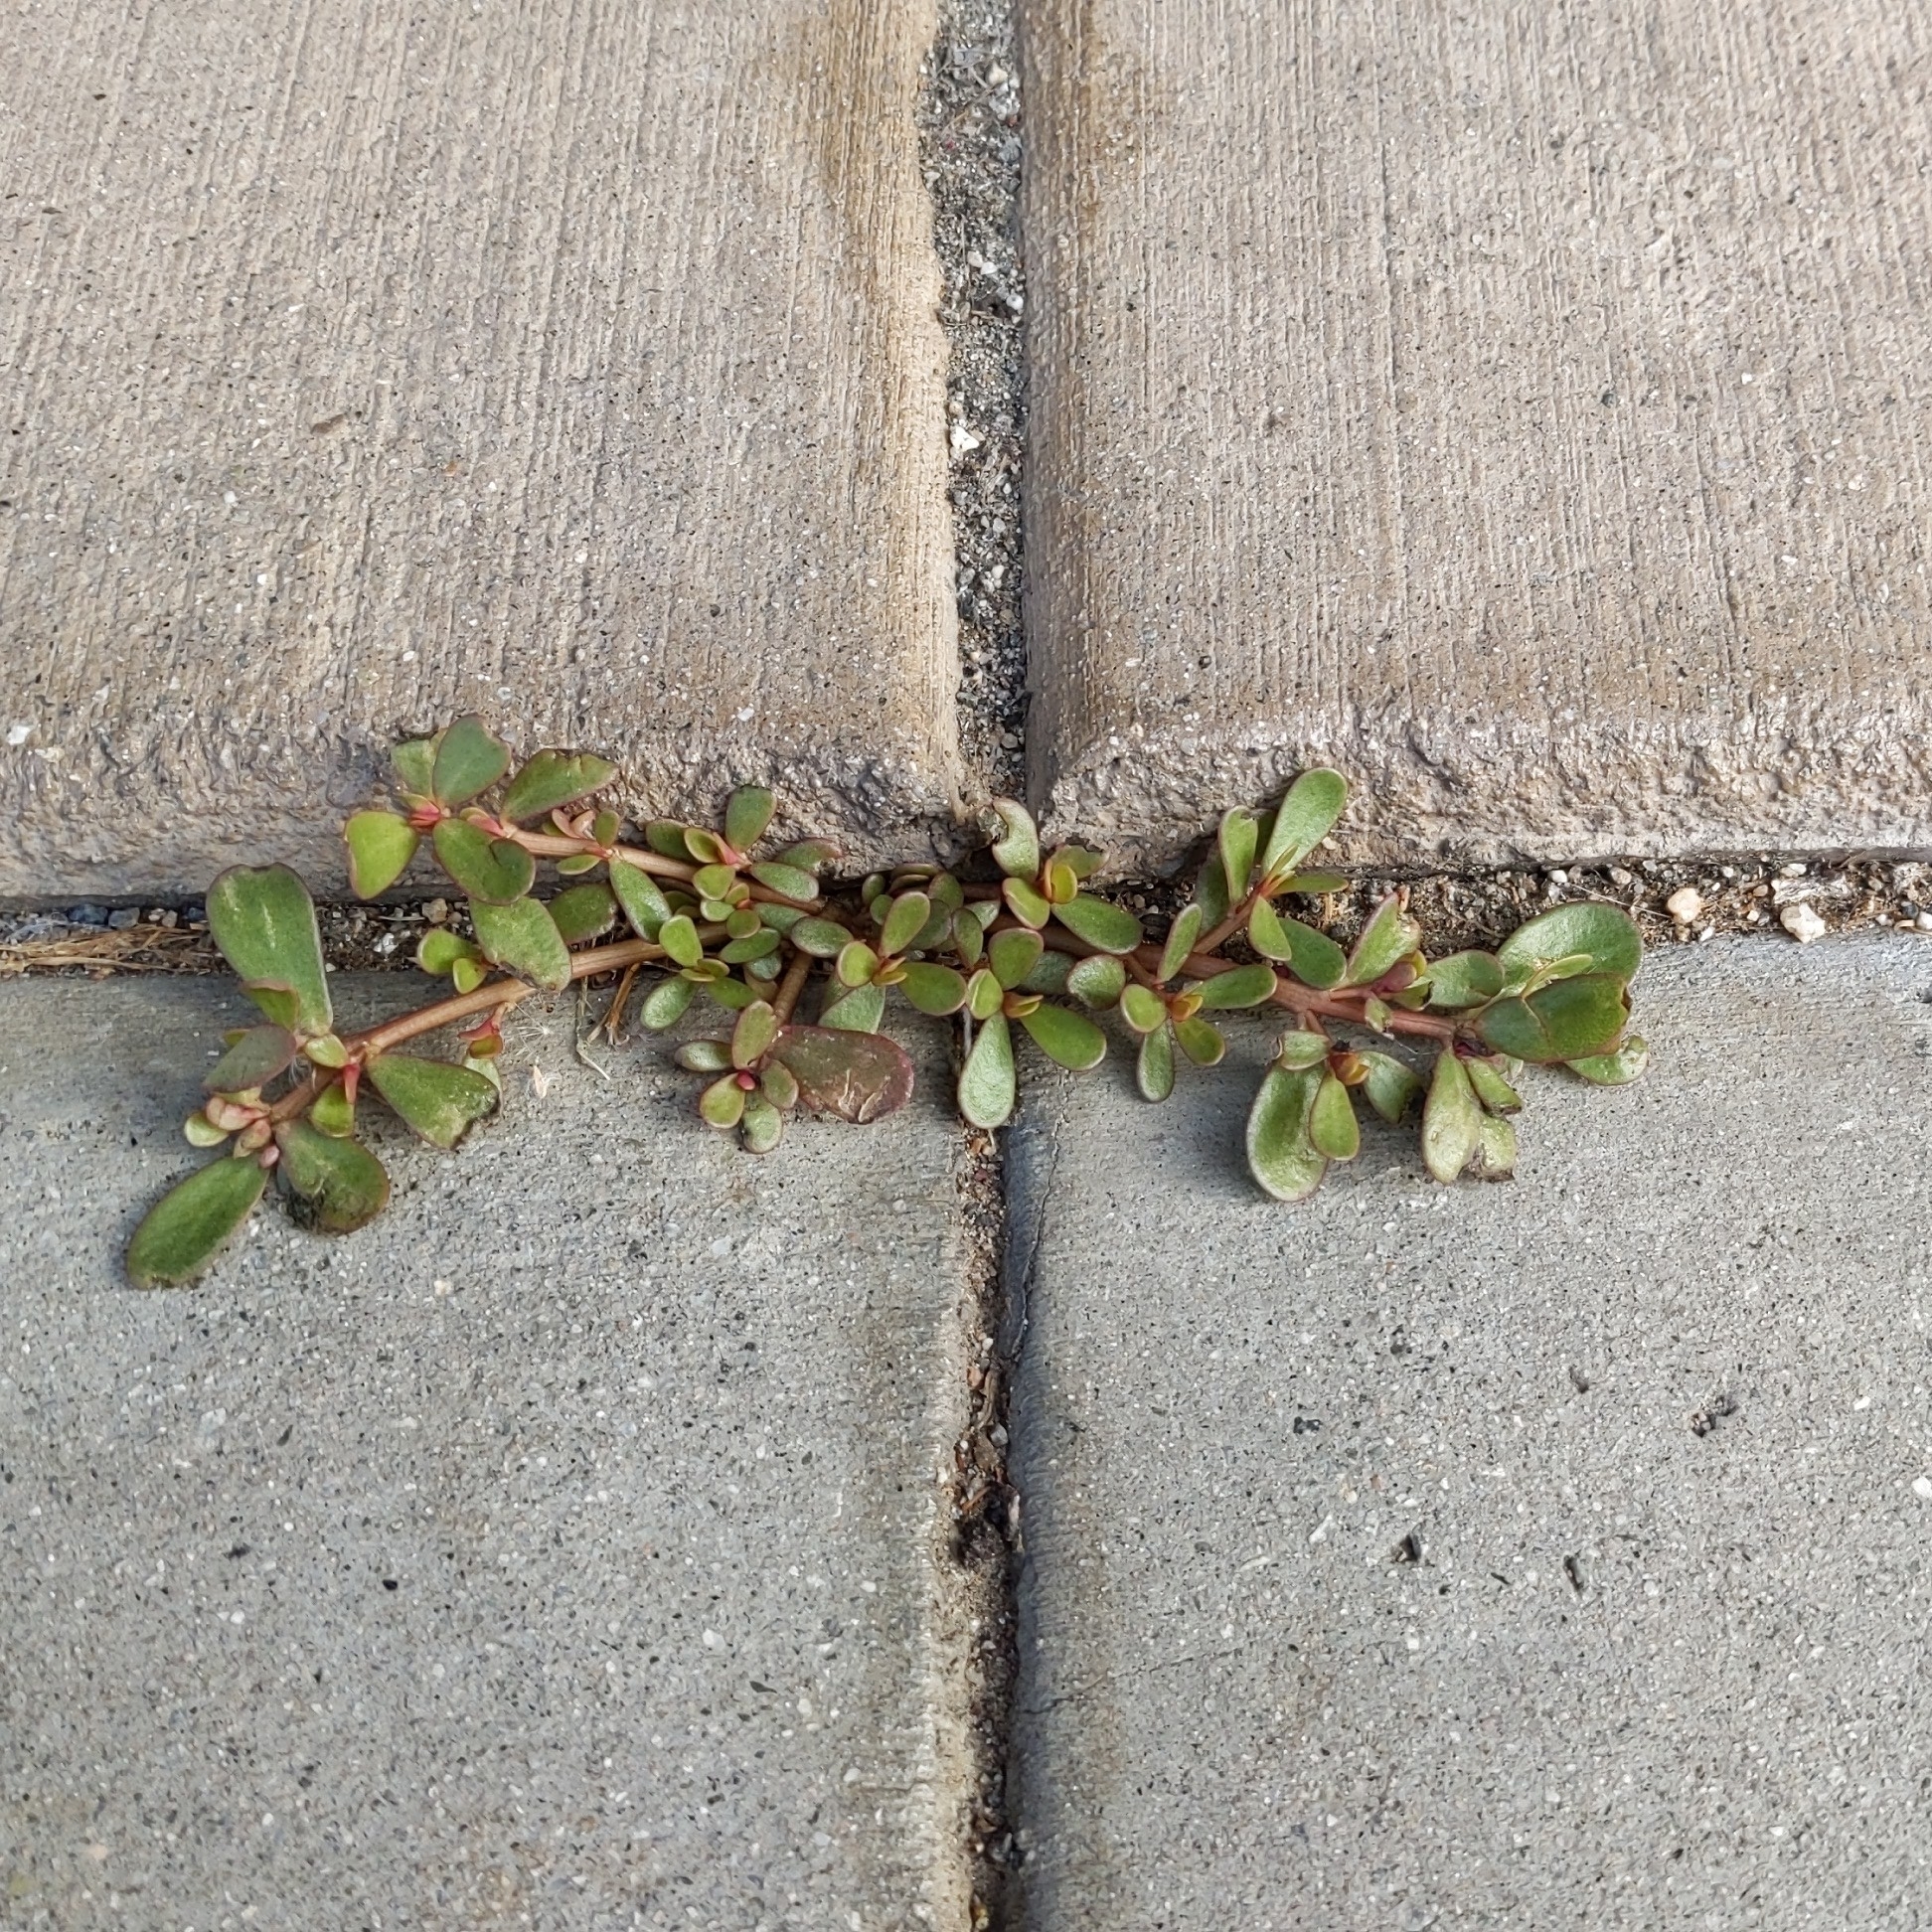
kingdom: Plantae
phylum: Tracheophyta
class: Magnoliopsida
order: Caryophyllales
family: Portulacaceae
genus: Portulaca
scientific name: Portulaca oleracea
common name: Common purslane
